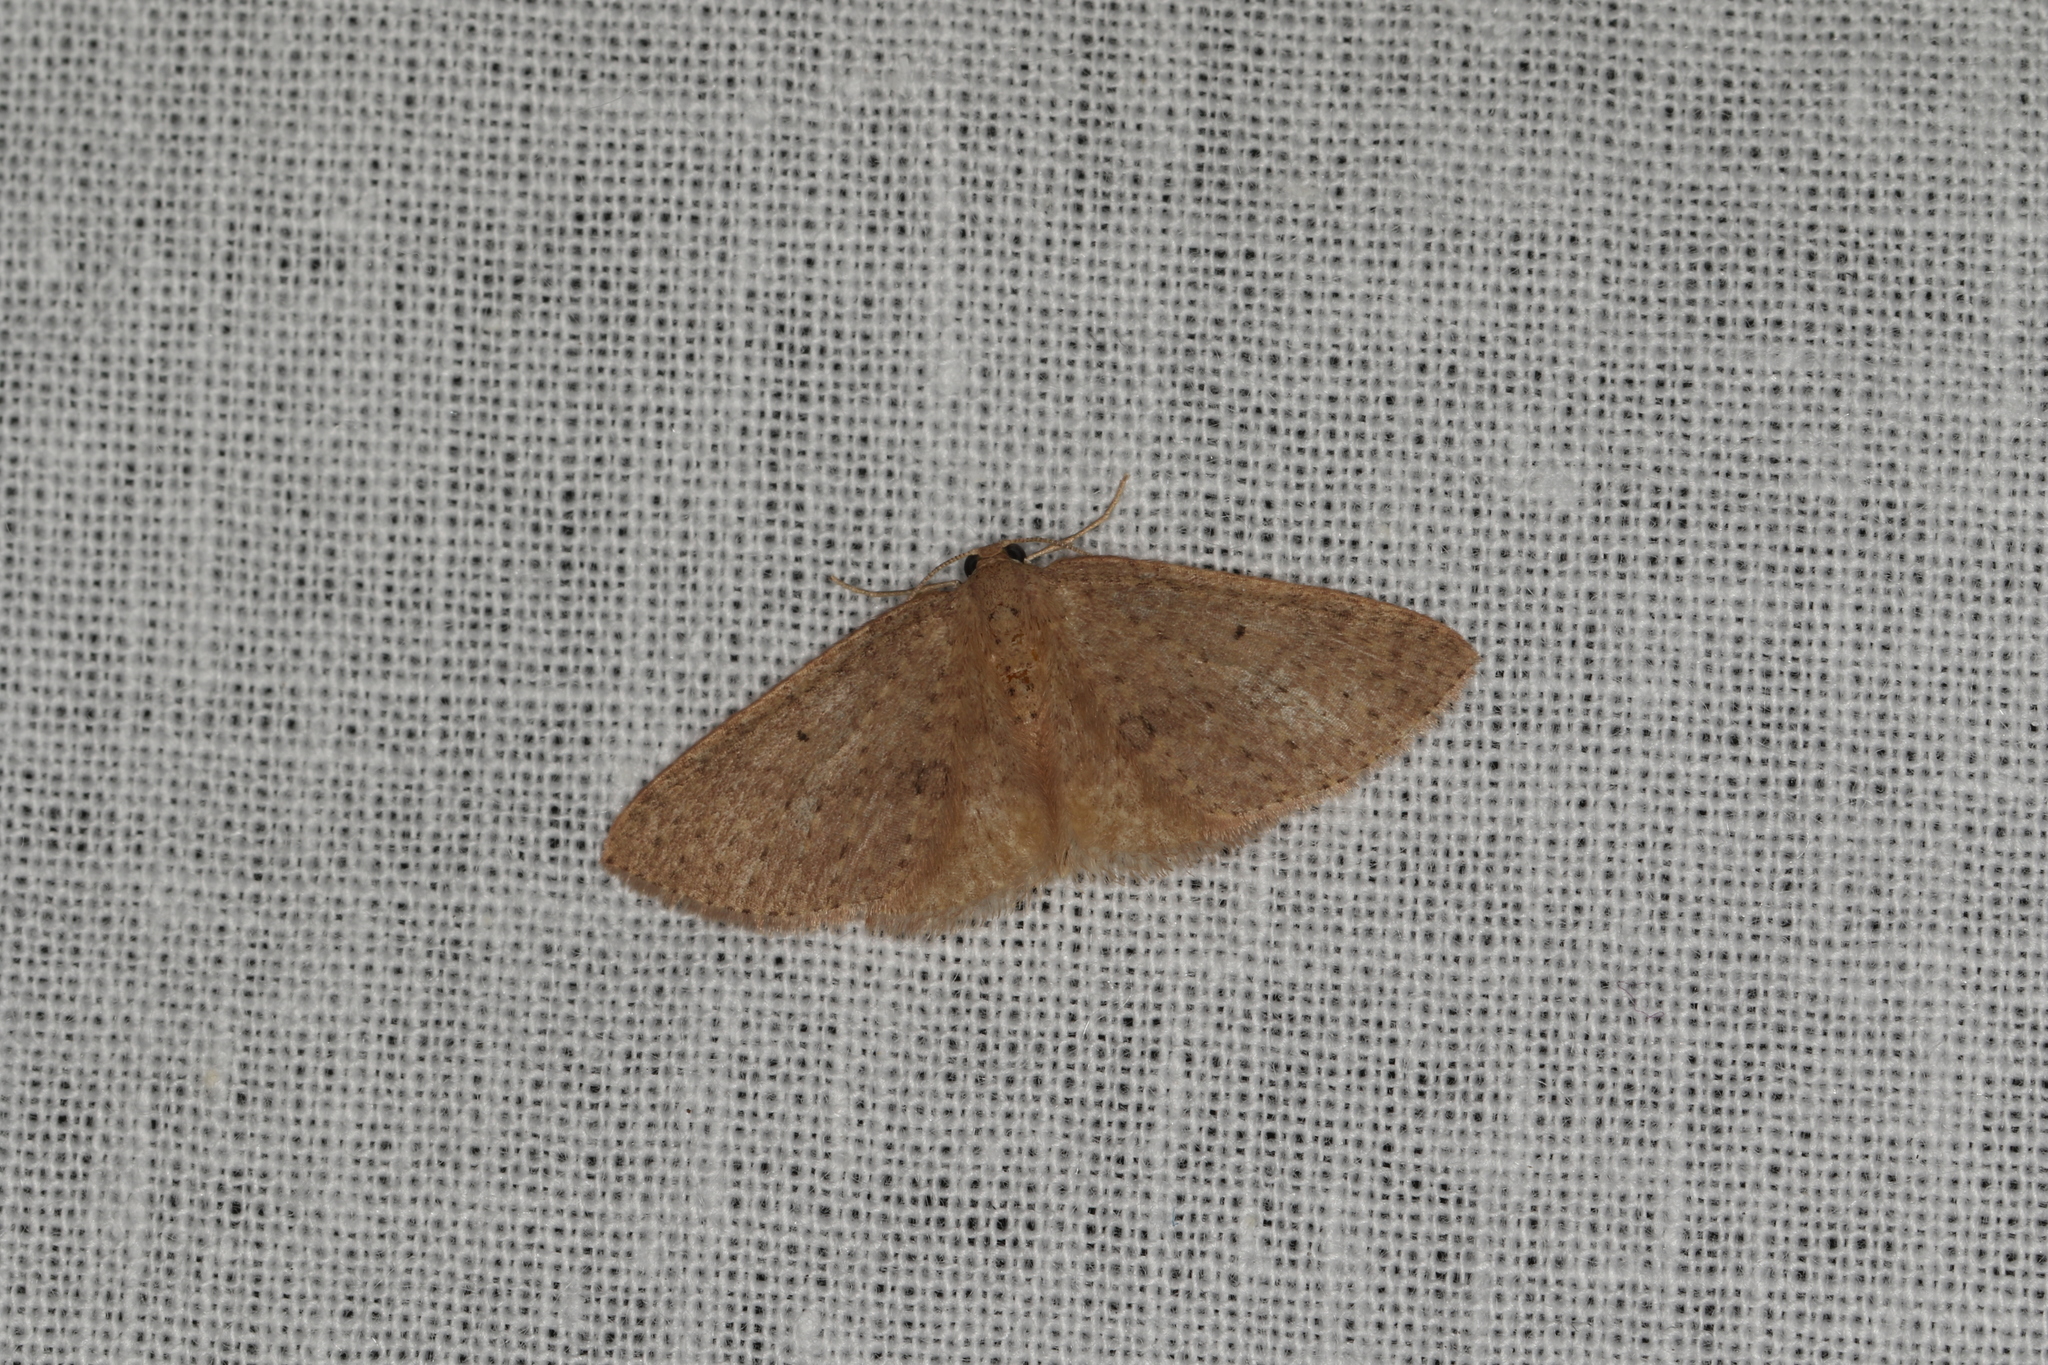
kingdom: Animalia
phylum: Arthropoda
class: Insecta
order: Lepidoptera
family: Geometridae
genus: Poecilasthena
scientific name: Poecilasthena anthodes
